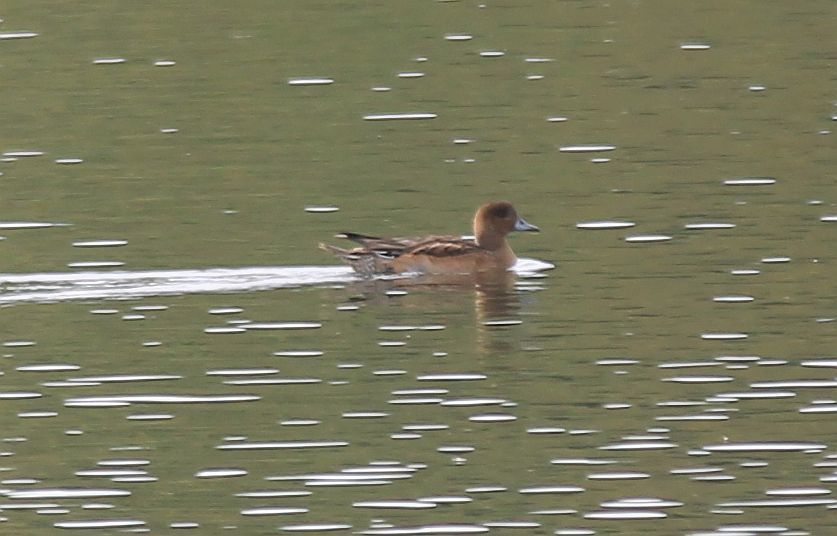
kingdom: Animalia
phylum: Chordata
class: Aves
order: Anseriformes
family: Anatidae
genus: Mareca
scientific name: Mareca penelope
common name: Eurasian wigeon
